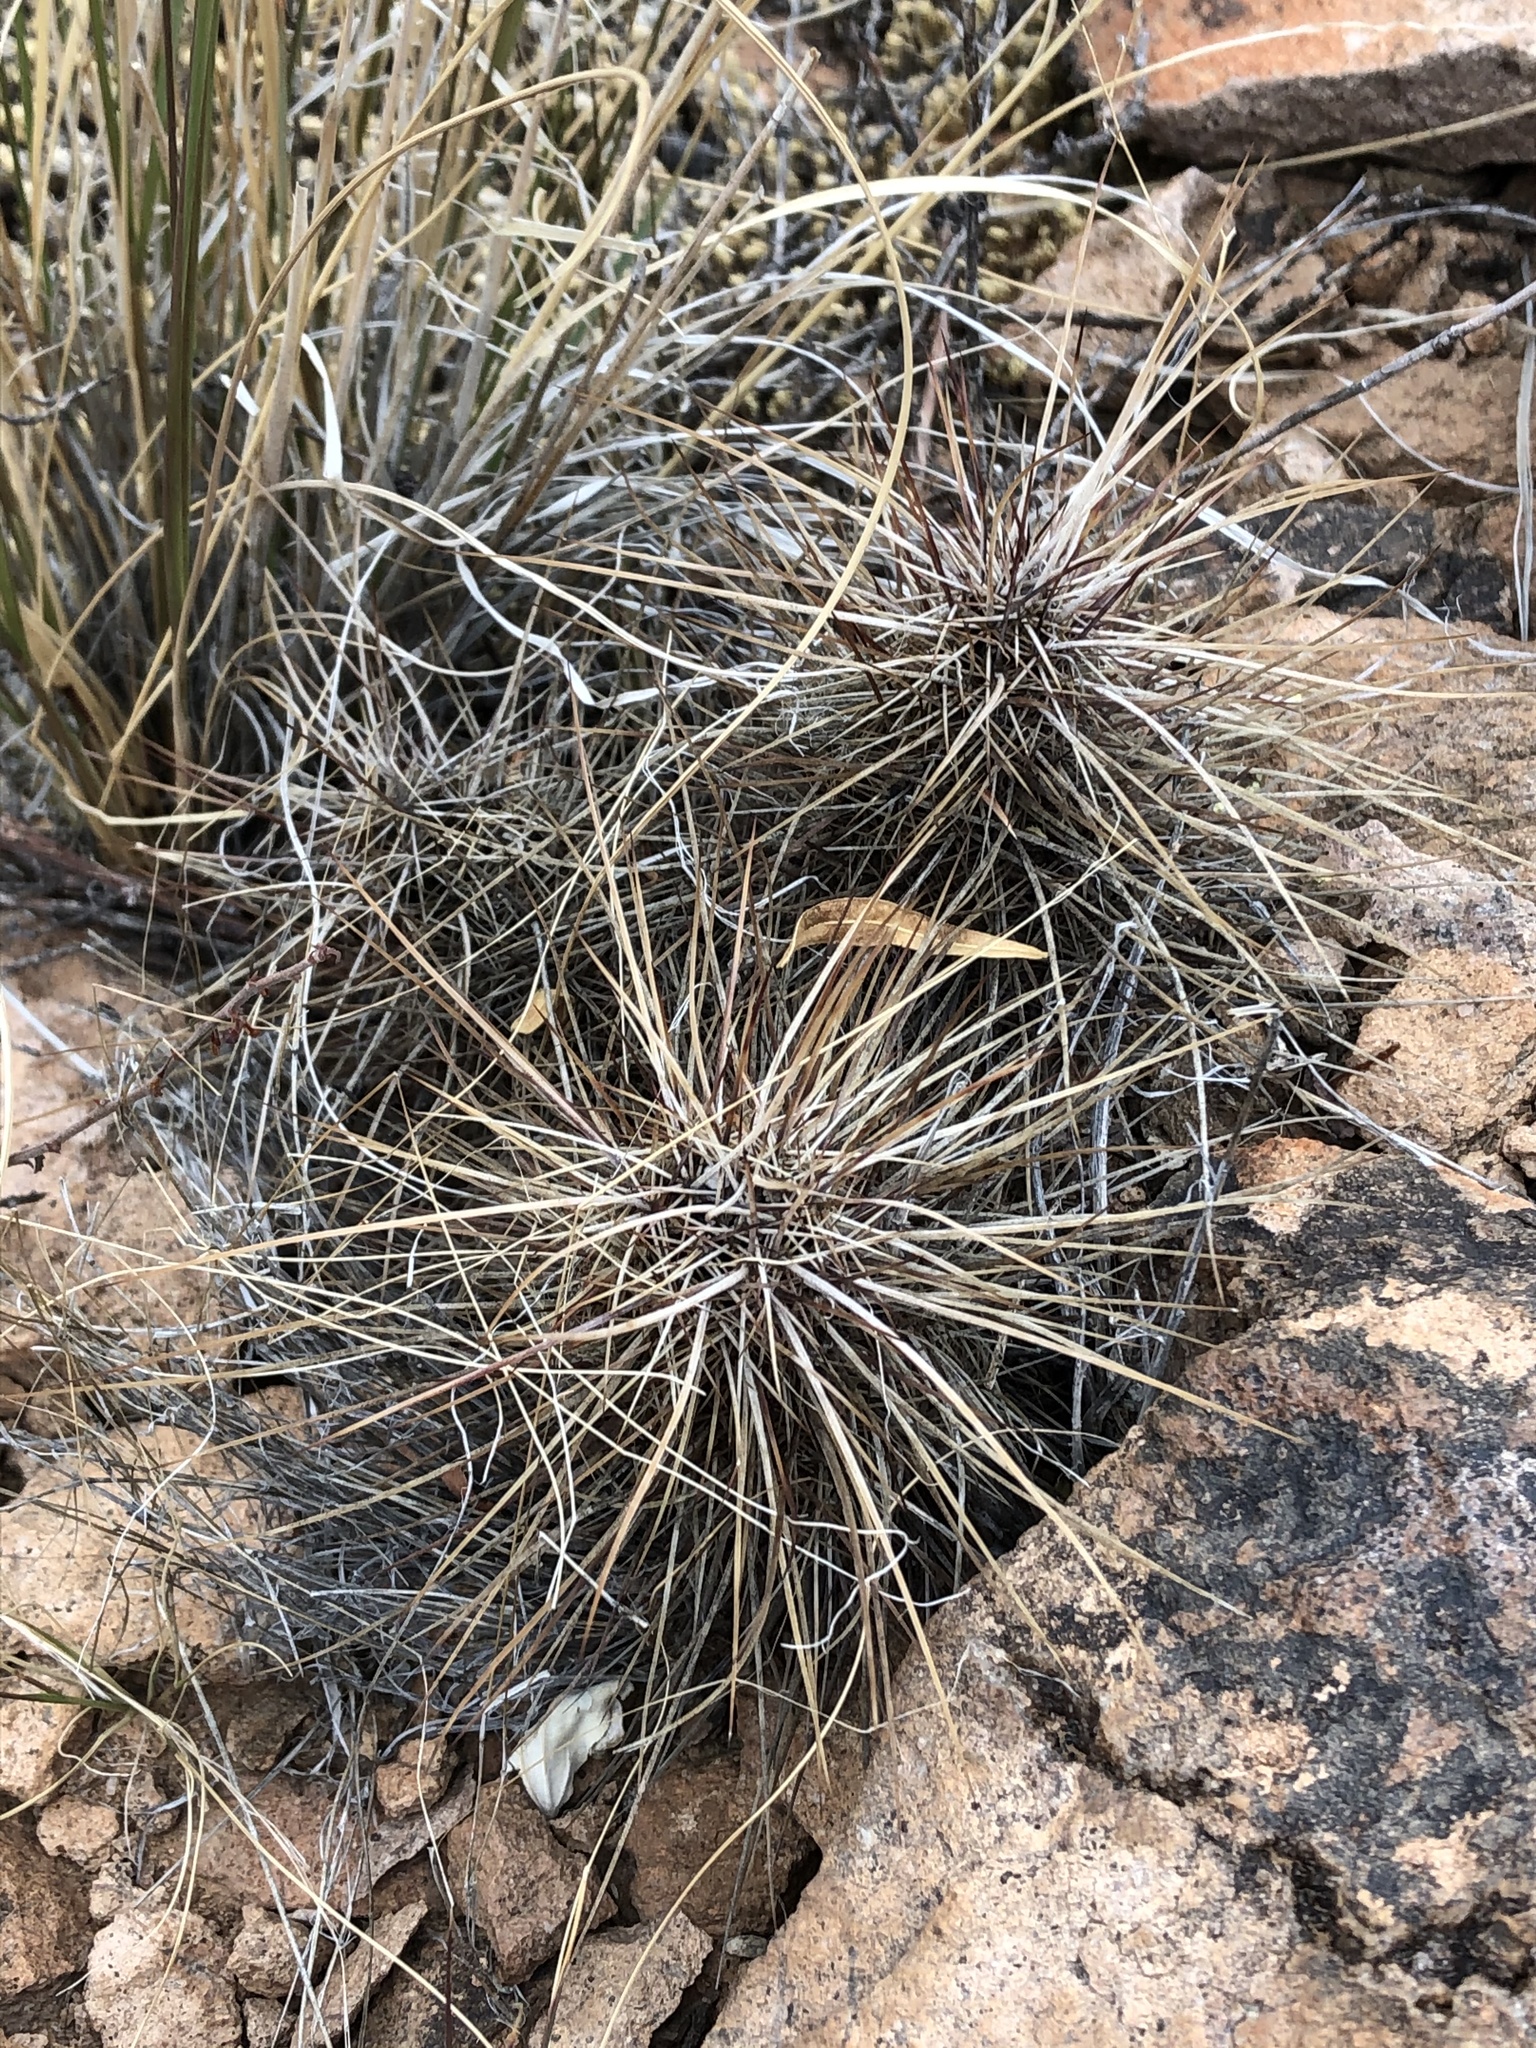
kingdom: Plantae
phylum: Tracheophyta
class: Magnoliopsida
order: Caryophyllales
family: Cactaceae
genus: Echinocereus
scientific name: Echinocereus bonkerae
